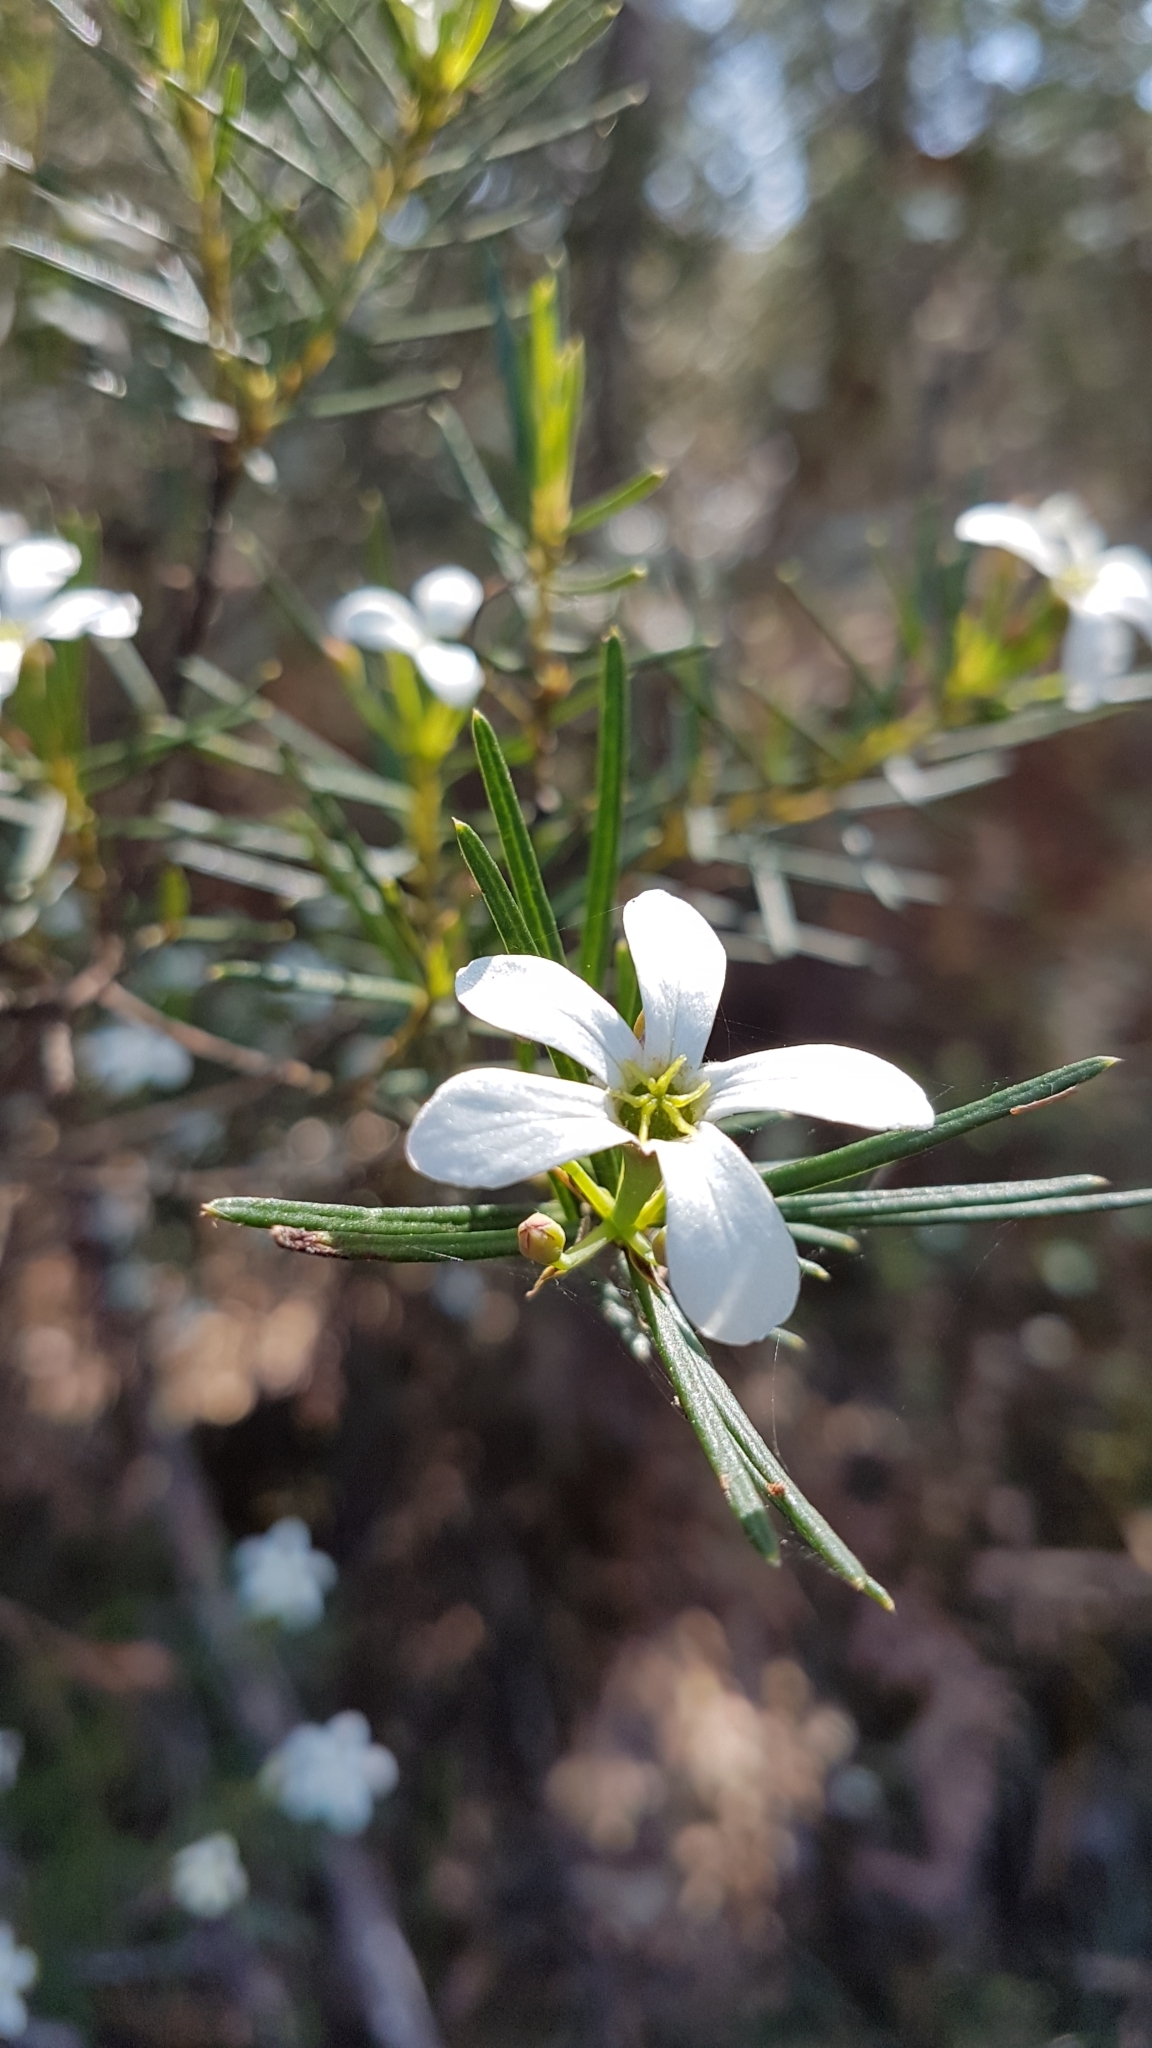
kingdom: Plantae
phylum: Tracheophyta
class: Magnoliopsida
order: Malpighiales
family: Euphorbiaceae
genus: Ricinocarpos
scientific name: Ricinocarpos pinifolius
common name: Weddingbush
